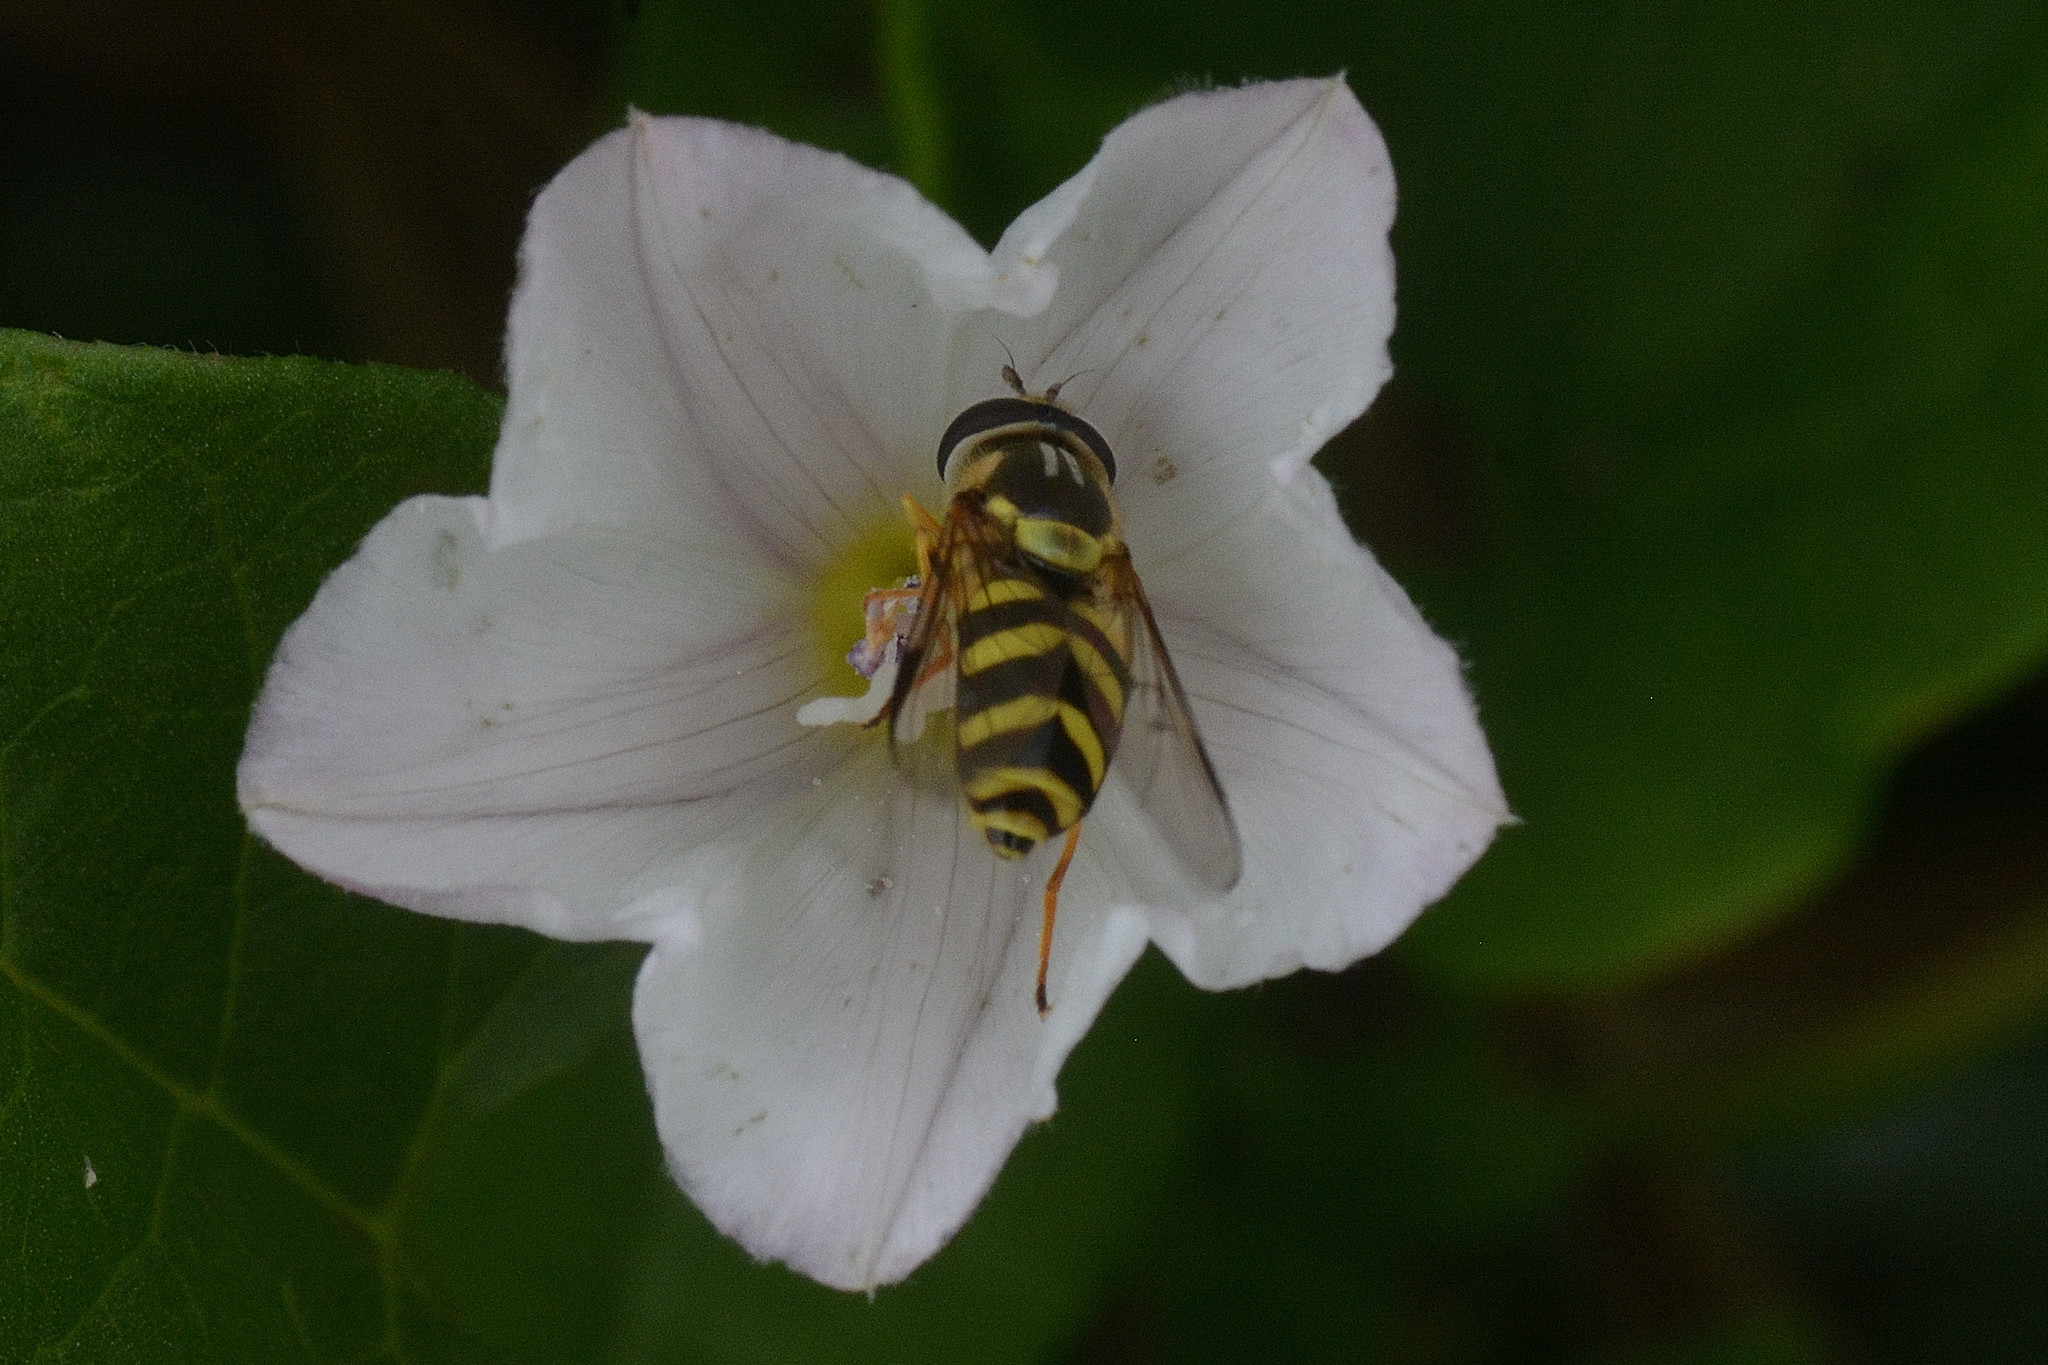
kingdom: Animalia
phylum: Arthropoda
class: Insecta
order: Diptera
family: Syrphidae
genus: Dasysyrphus
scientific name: Dasysyrphus albostriatus
